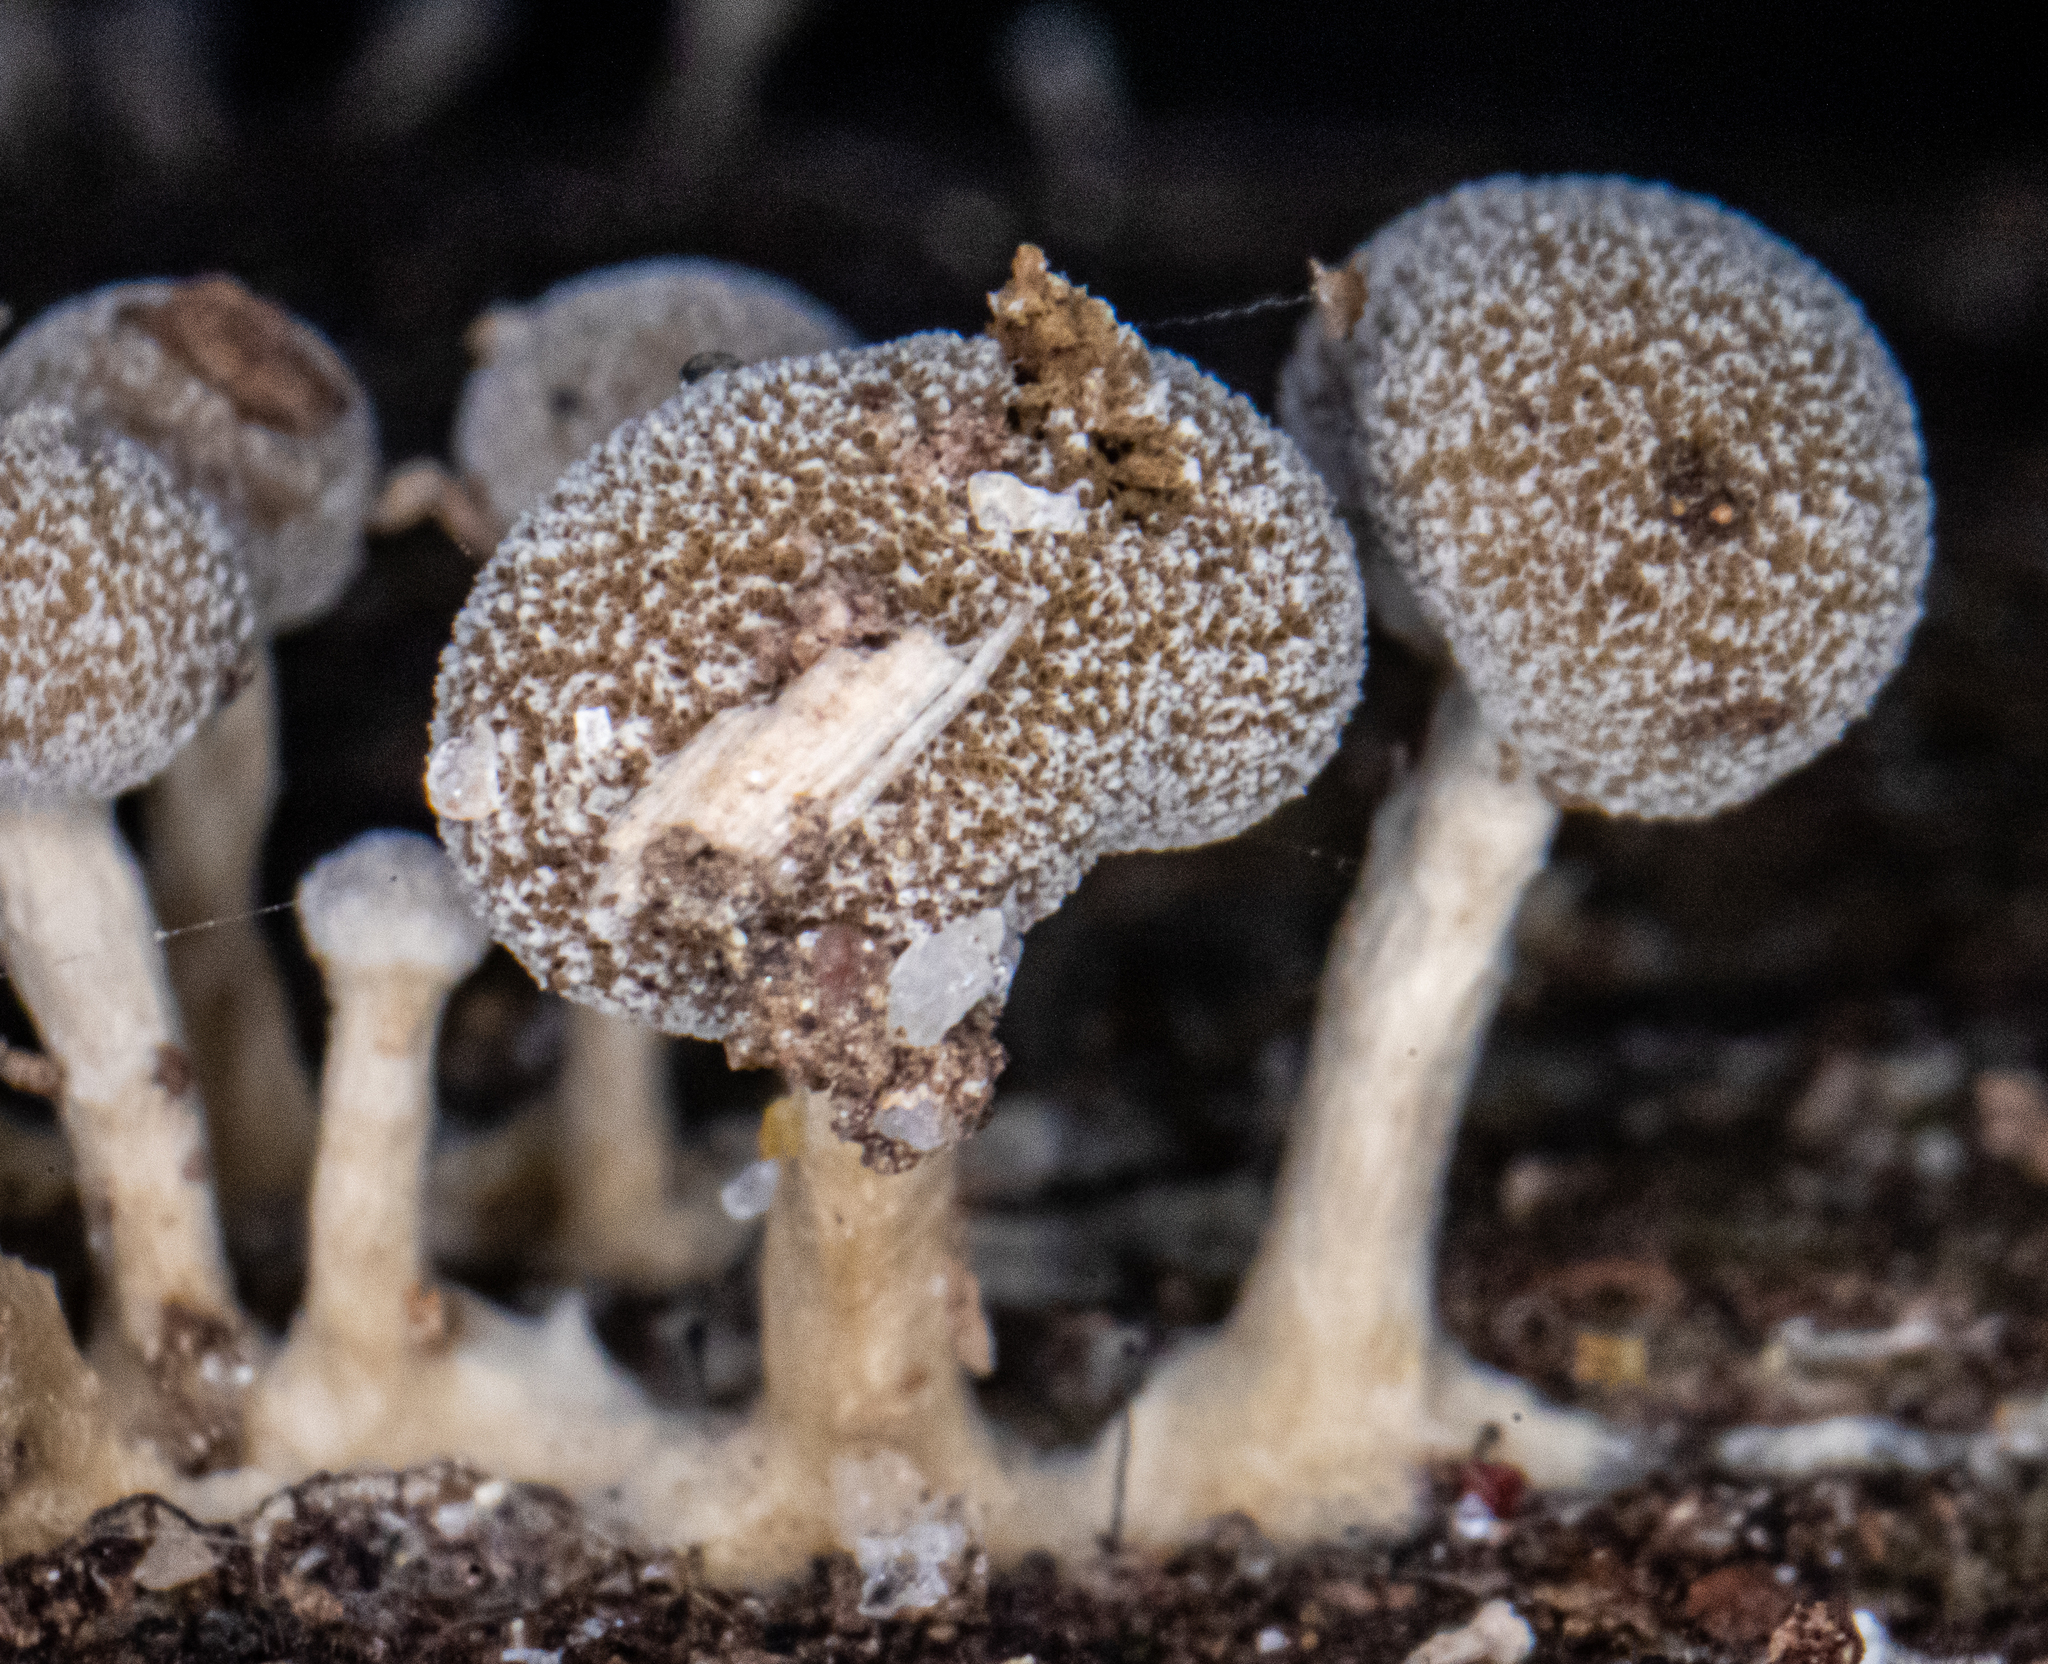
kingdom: Fungi
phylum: Basidiomycota
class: Atractiellomycetes
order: Atractiellales
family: Phleogenaceae
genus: Phleogena
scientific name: Phleogena faginea
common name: Fenugreek stalkball
